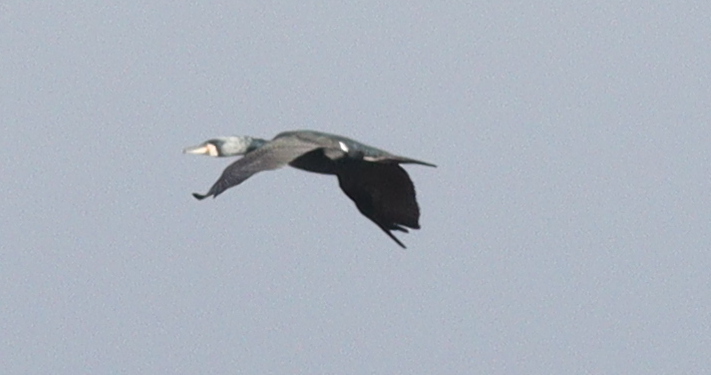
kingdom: Animalia
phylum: Chordata
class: Aves
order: Suliformes
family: Phalacrocoracidae
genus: Phalacrocorax
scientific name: Phalacrocorax carbo
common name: Great cormorant
